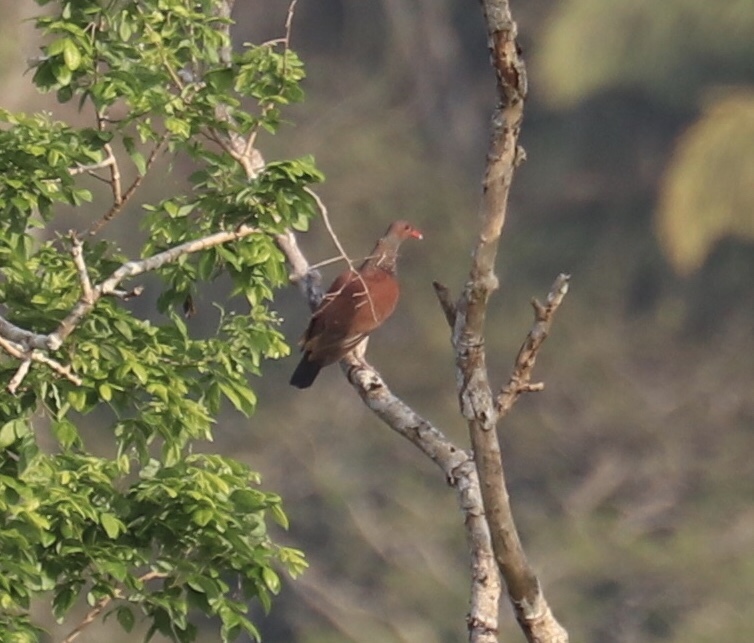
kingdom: Animalia
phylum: Chordata
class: Aves
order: Columbiformes
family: Columbidae
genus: Patagioenas
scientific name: Patagioenas speciosa
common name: Scaled pigeon
